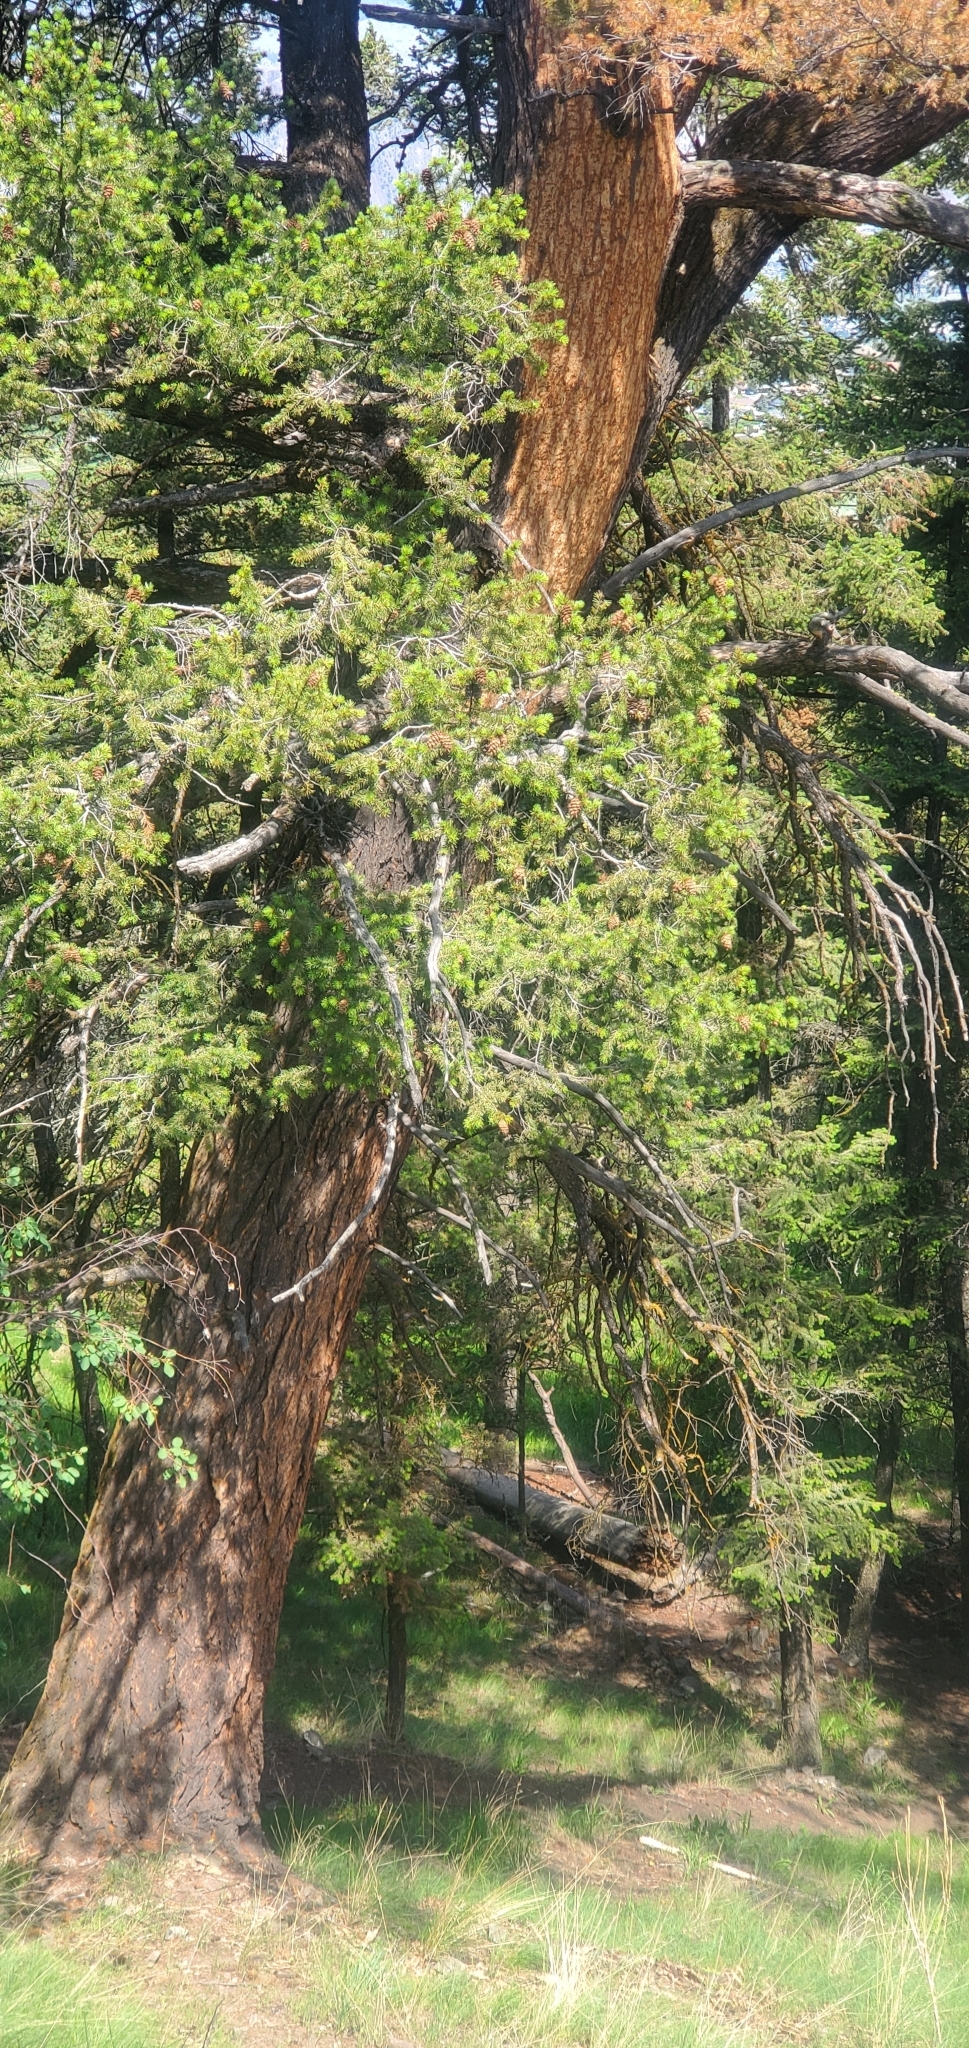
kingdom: Plantae
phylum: Tracheophyta
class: Pinopsida
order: Pinales
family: Pinaceae
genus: Pseudotsuga
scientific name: Pseudotsuga menziesii
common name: Douglas fir
